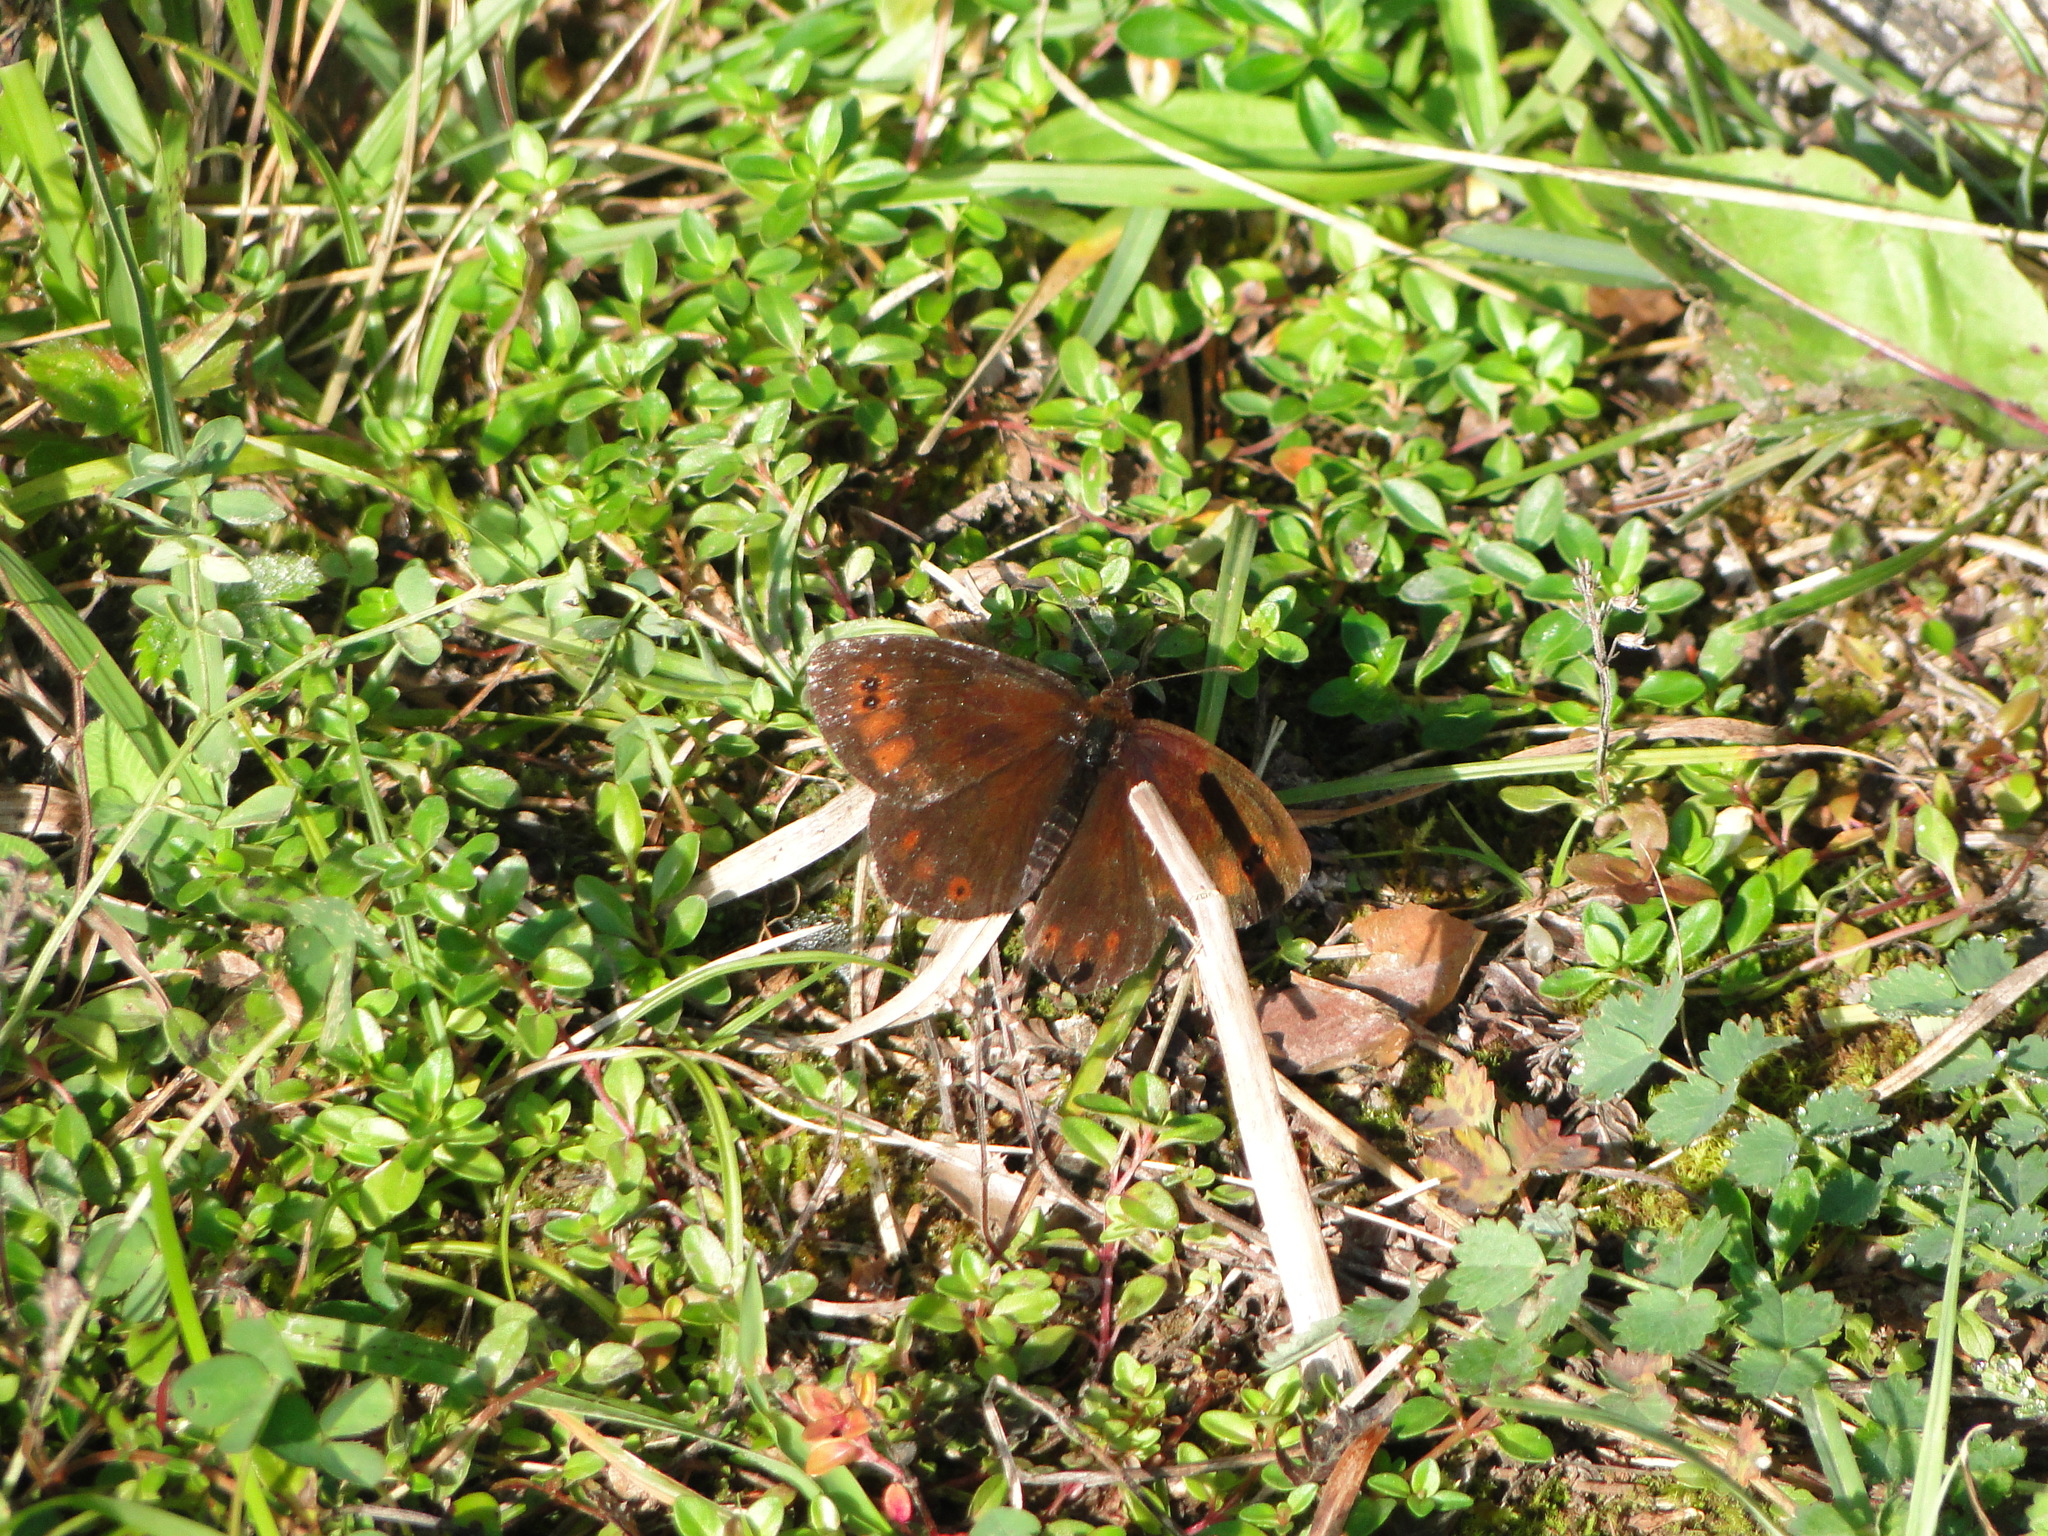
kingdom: Animalia
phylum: Arthropoda
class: Insecta
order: Lepidoptera
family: Nymphalidae
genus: Erebia
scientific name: Erebia pronoe
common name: Water ringlet
